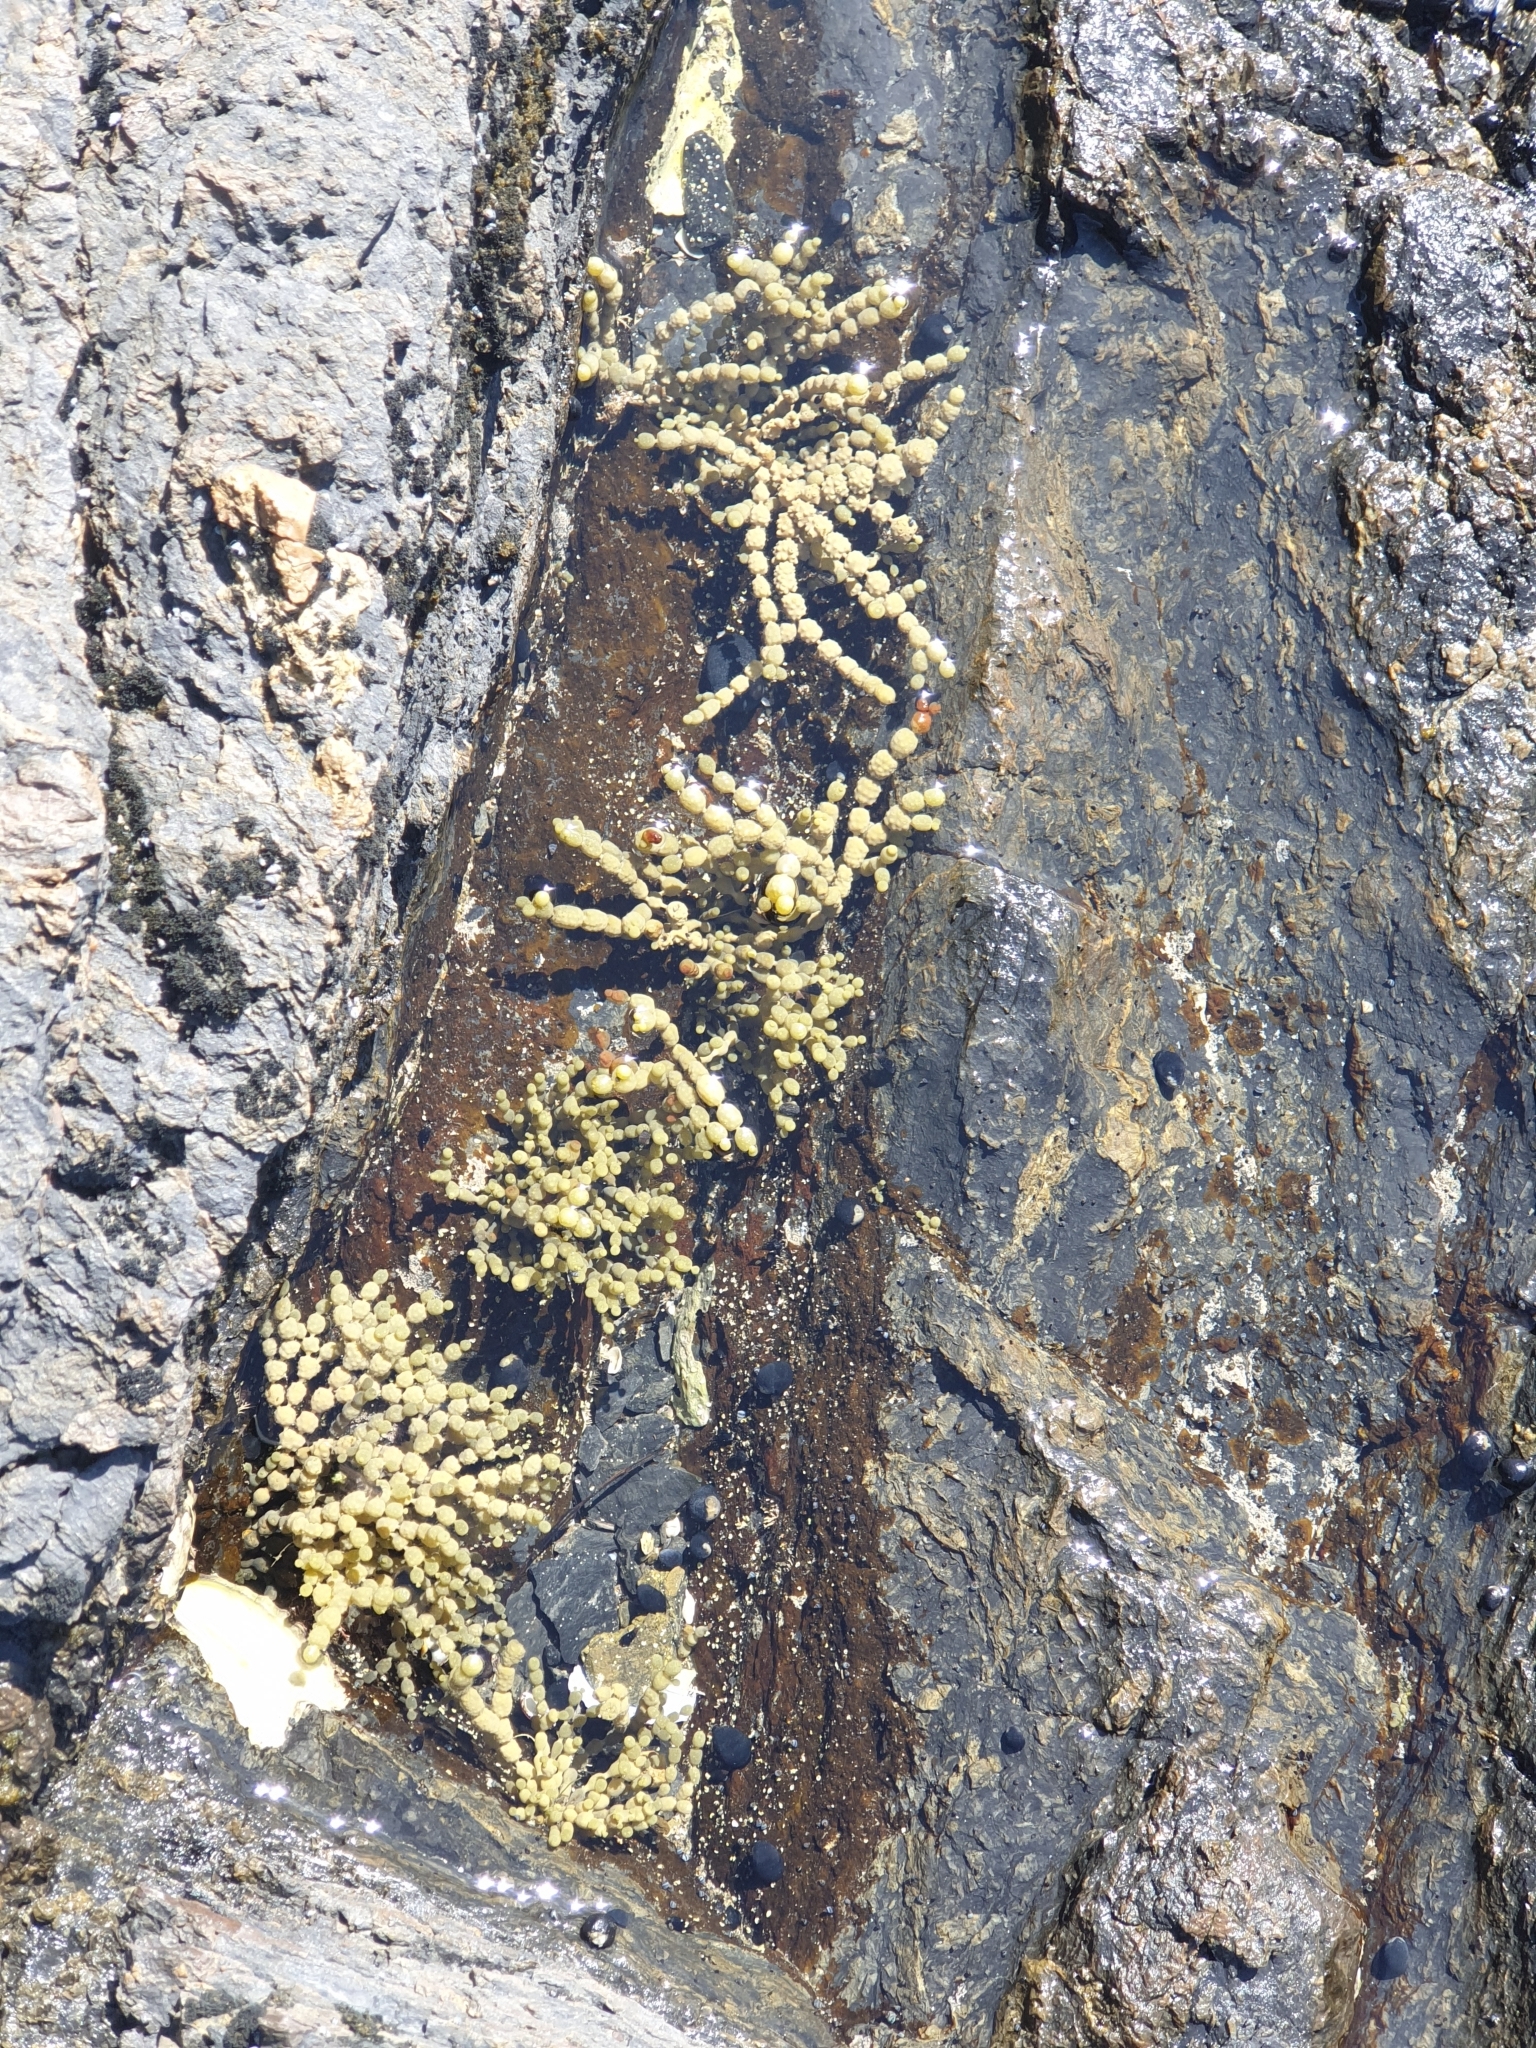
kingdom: Chromista
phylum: Ochrophyta
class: Phaeophyceae
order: Fucales
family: Hormosiraceae
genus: Hormosira
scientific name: Hormosira banksii
